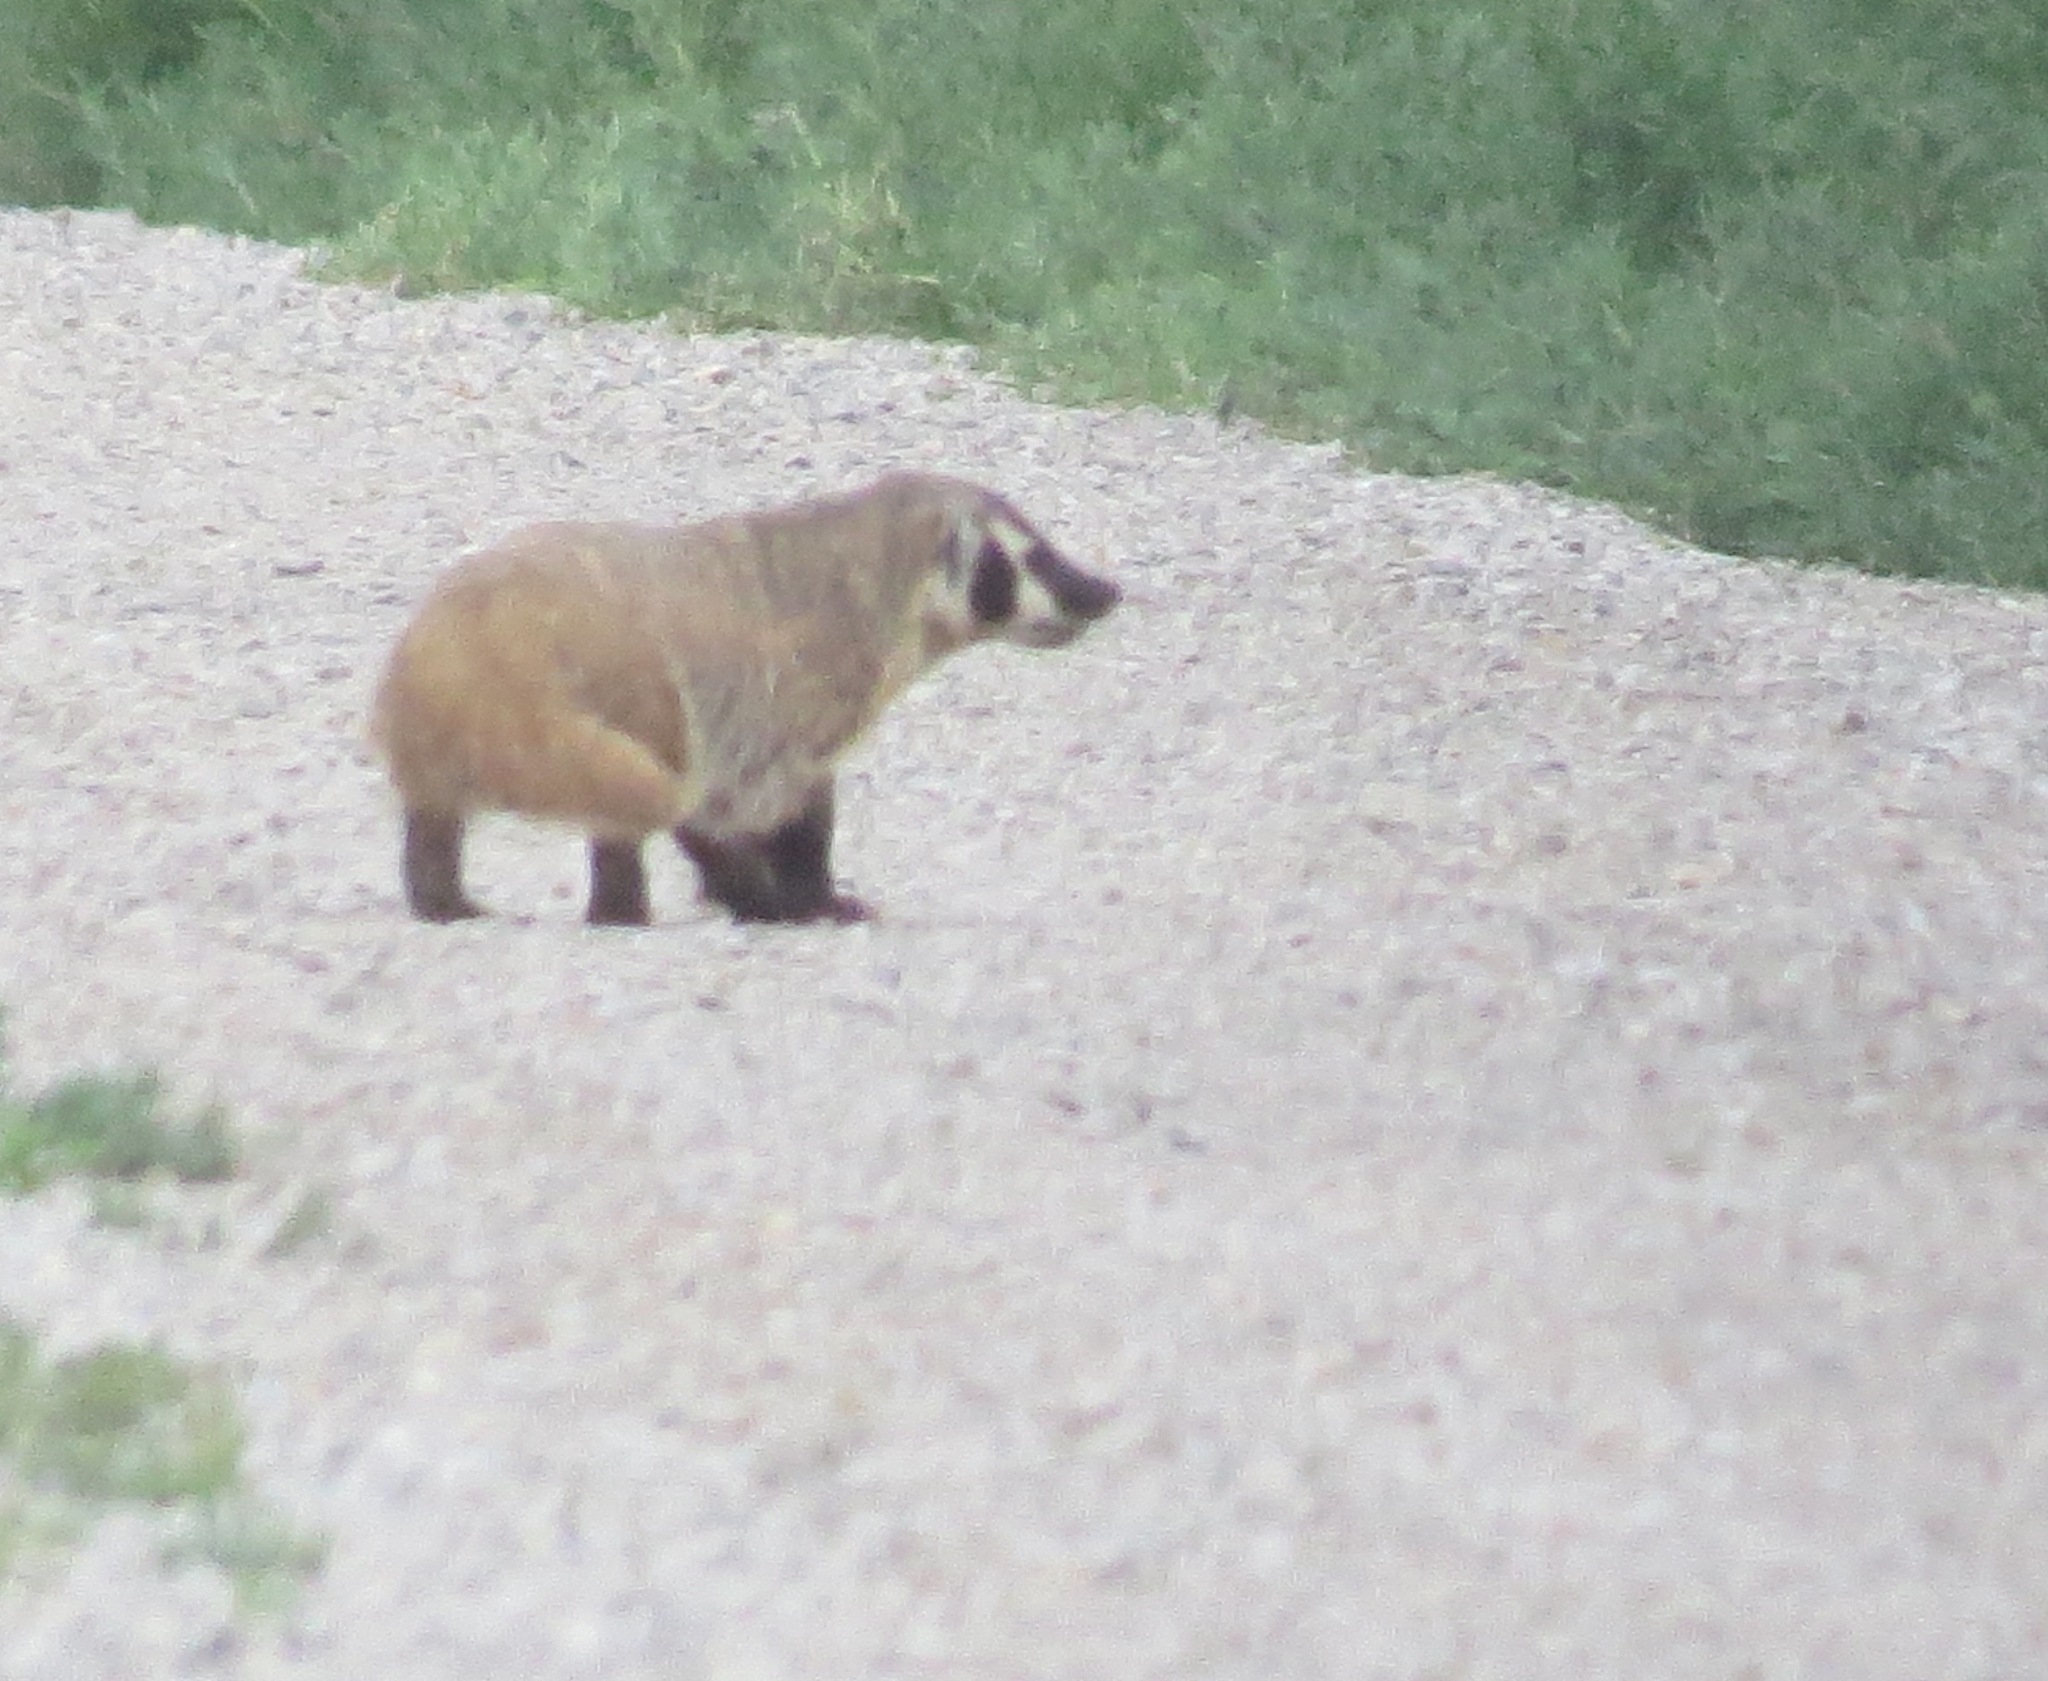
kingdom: Animalia
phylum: Chordata
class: Mammalia
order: Carnivora
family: Mustelidae
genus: Taxidea
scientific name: Taxidea taxus
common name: American badger
